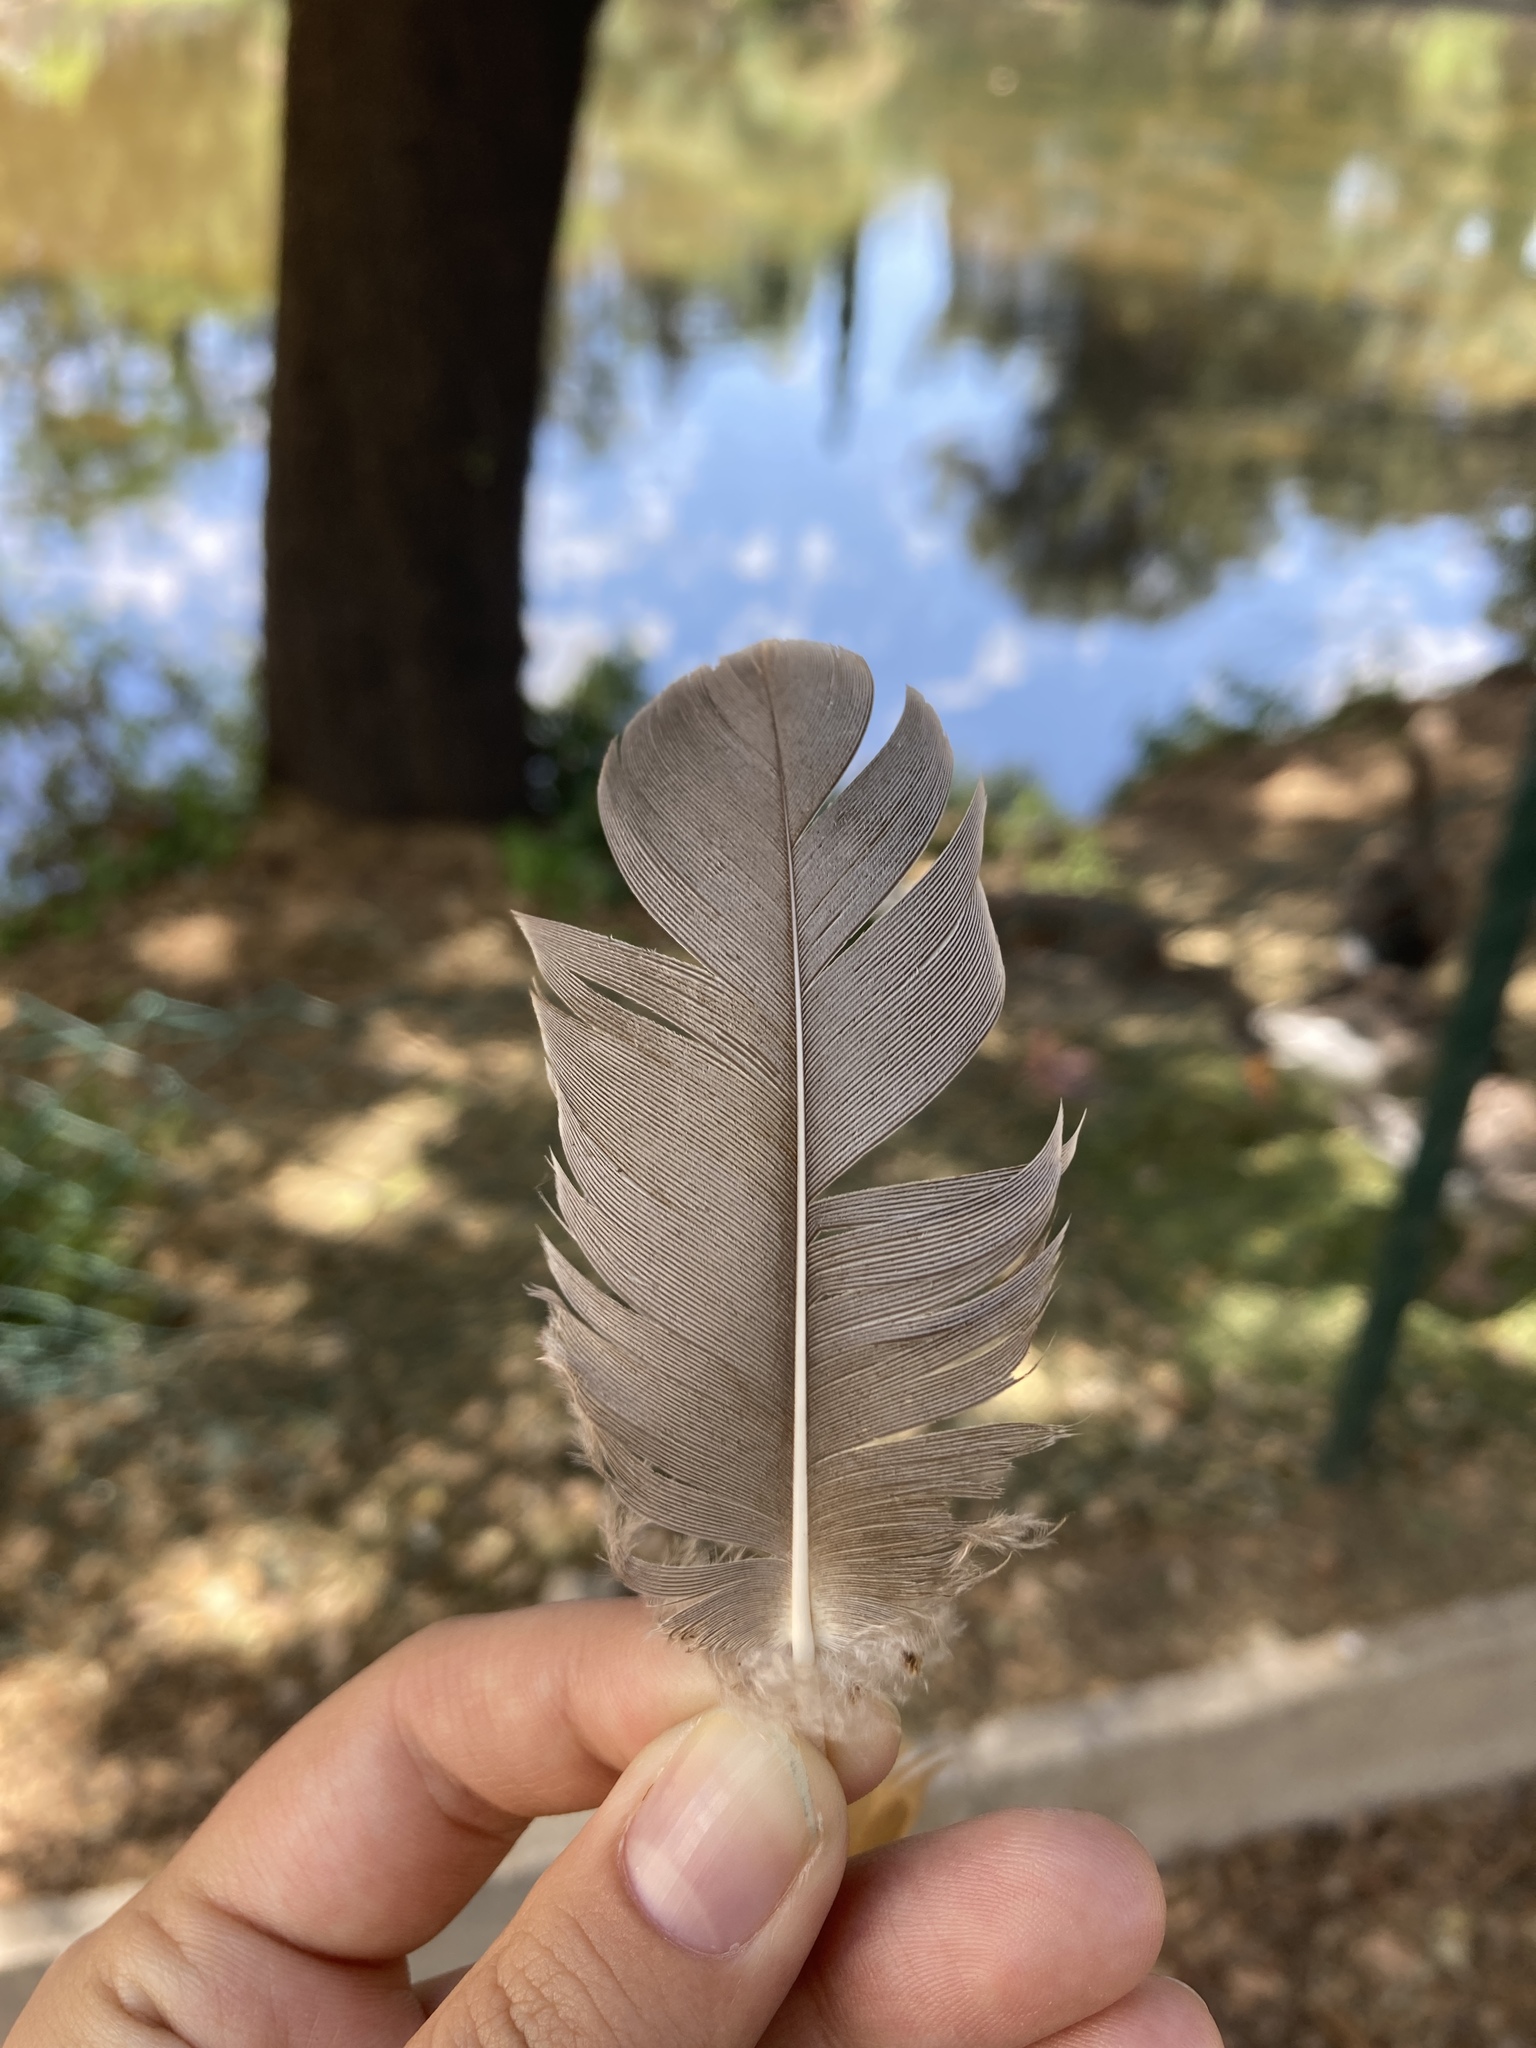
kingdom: Animalia
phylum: Chordata
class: Aves
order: Anseriformes
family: Anatidae
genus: Anser
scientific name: Anser anser
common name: Greylag goose
